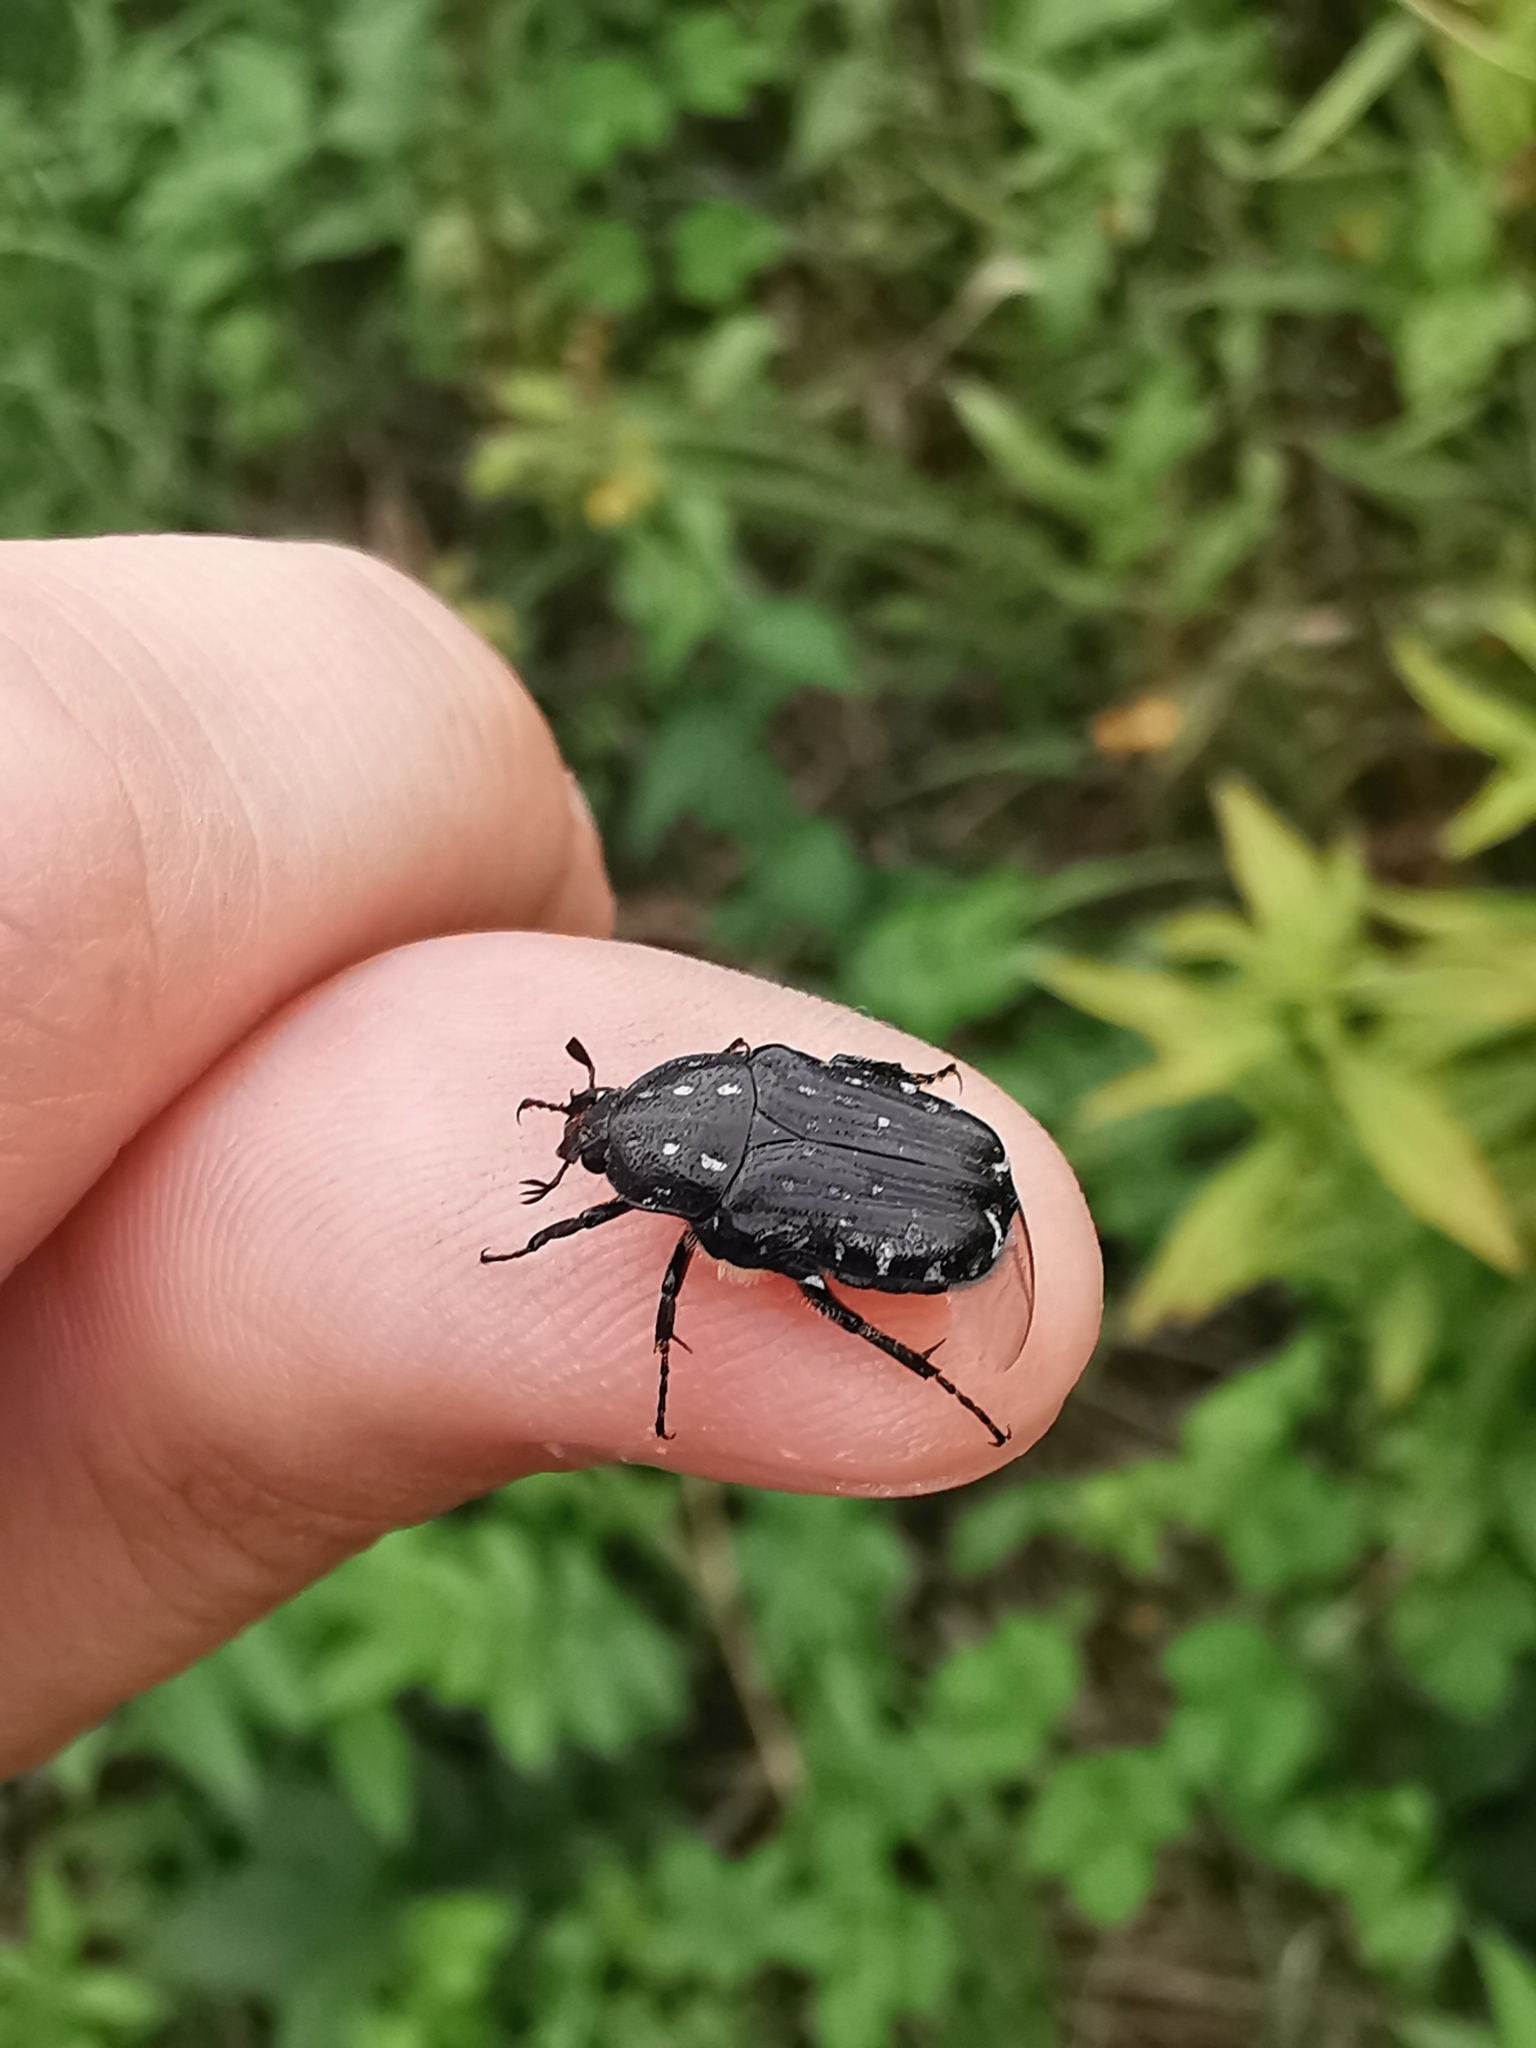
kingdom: Animalia
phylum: Arthropoda
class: Insecta
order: Coleoptera
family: Scarabaeidae
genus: Oxythyrea
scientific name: Oxythyrea funesta
